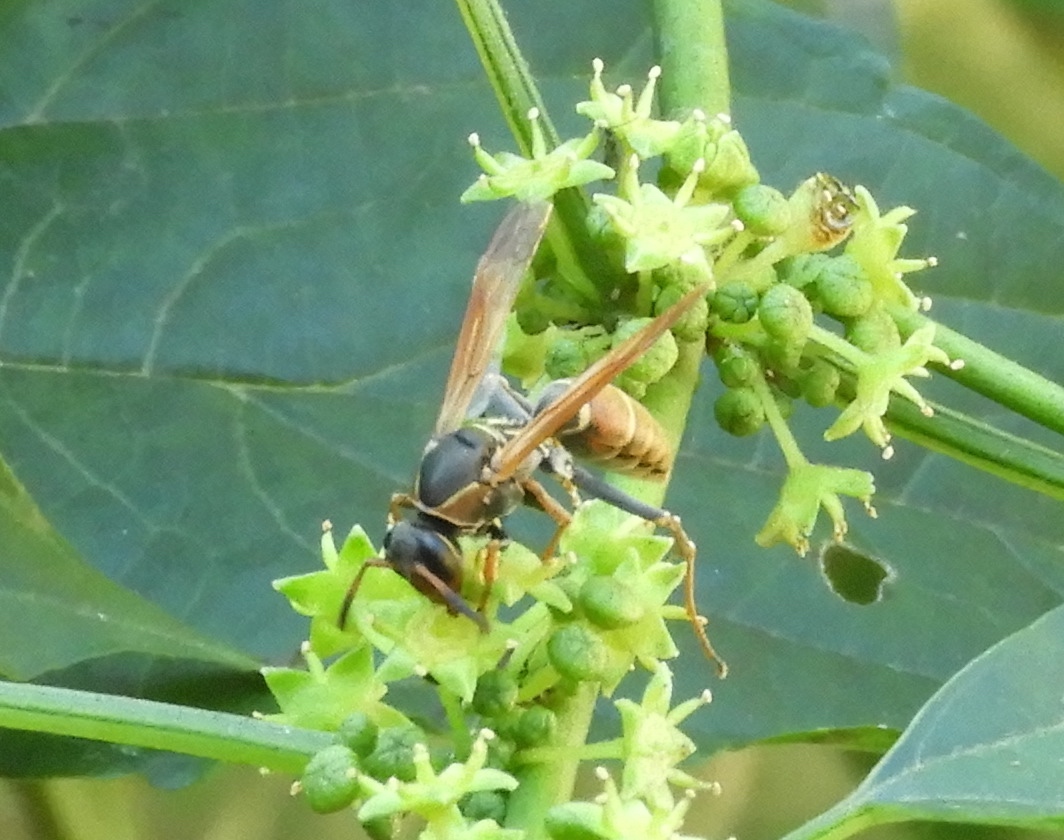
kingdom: Animalia
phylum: Arthropoda
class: Insecta
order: Hymenoptera
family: Eumenidae
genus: Polistes
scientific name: Polistes pacificus
